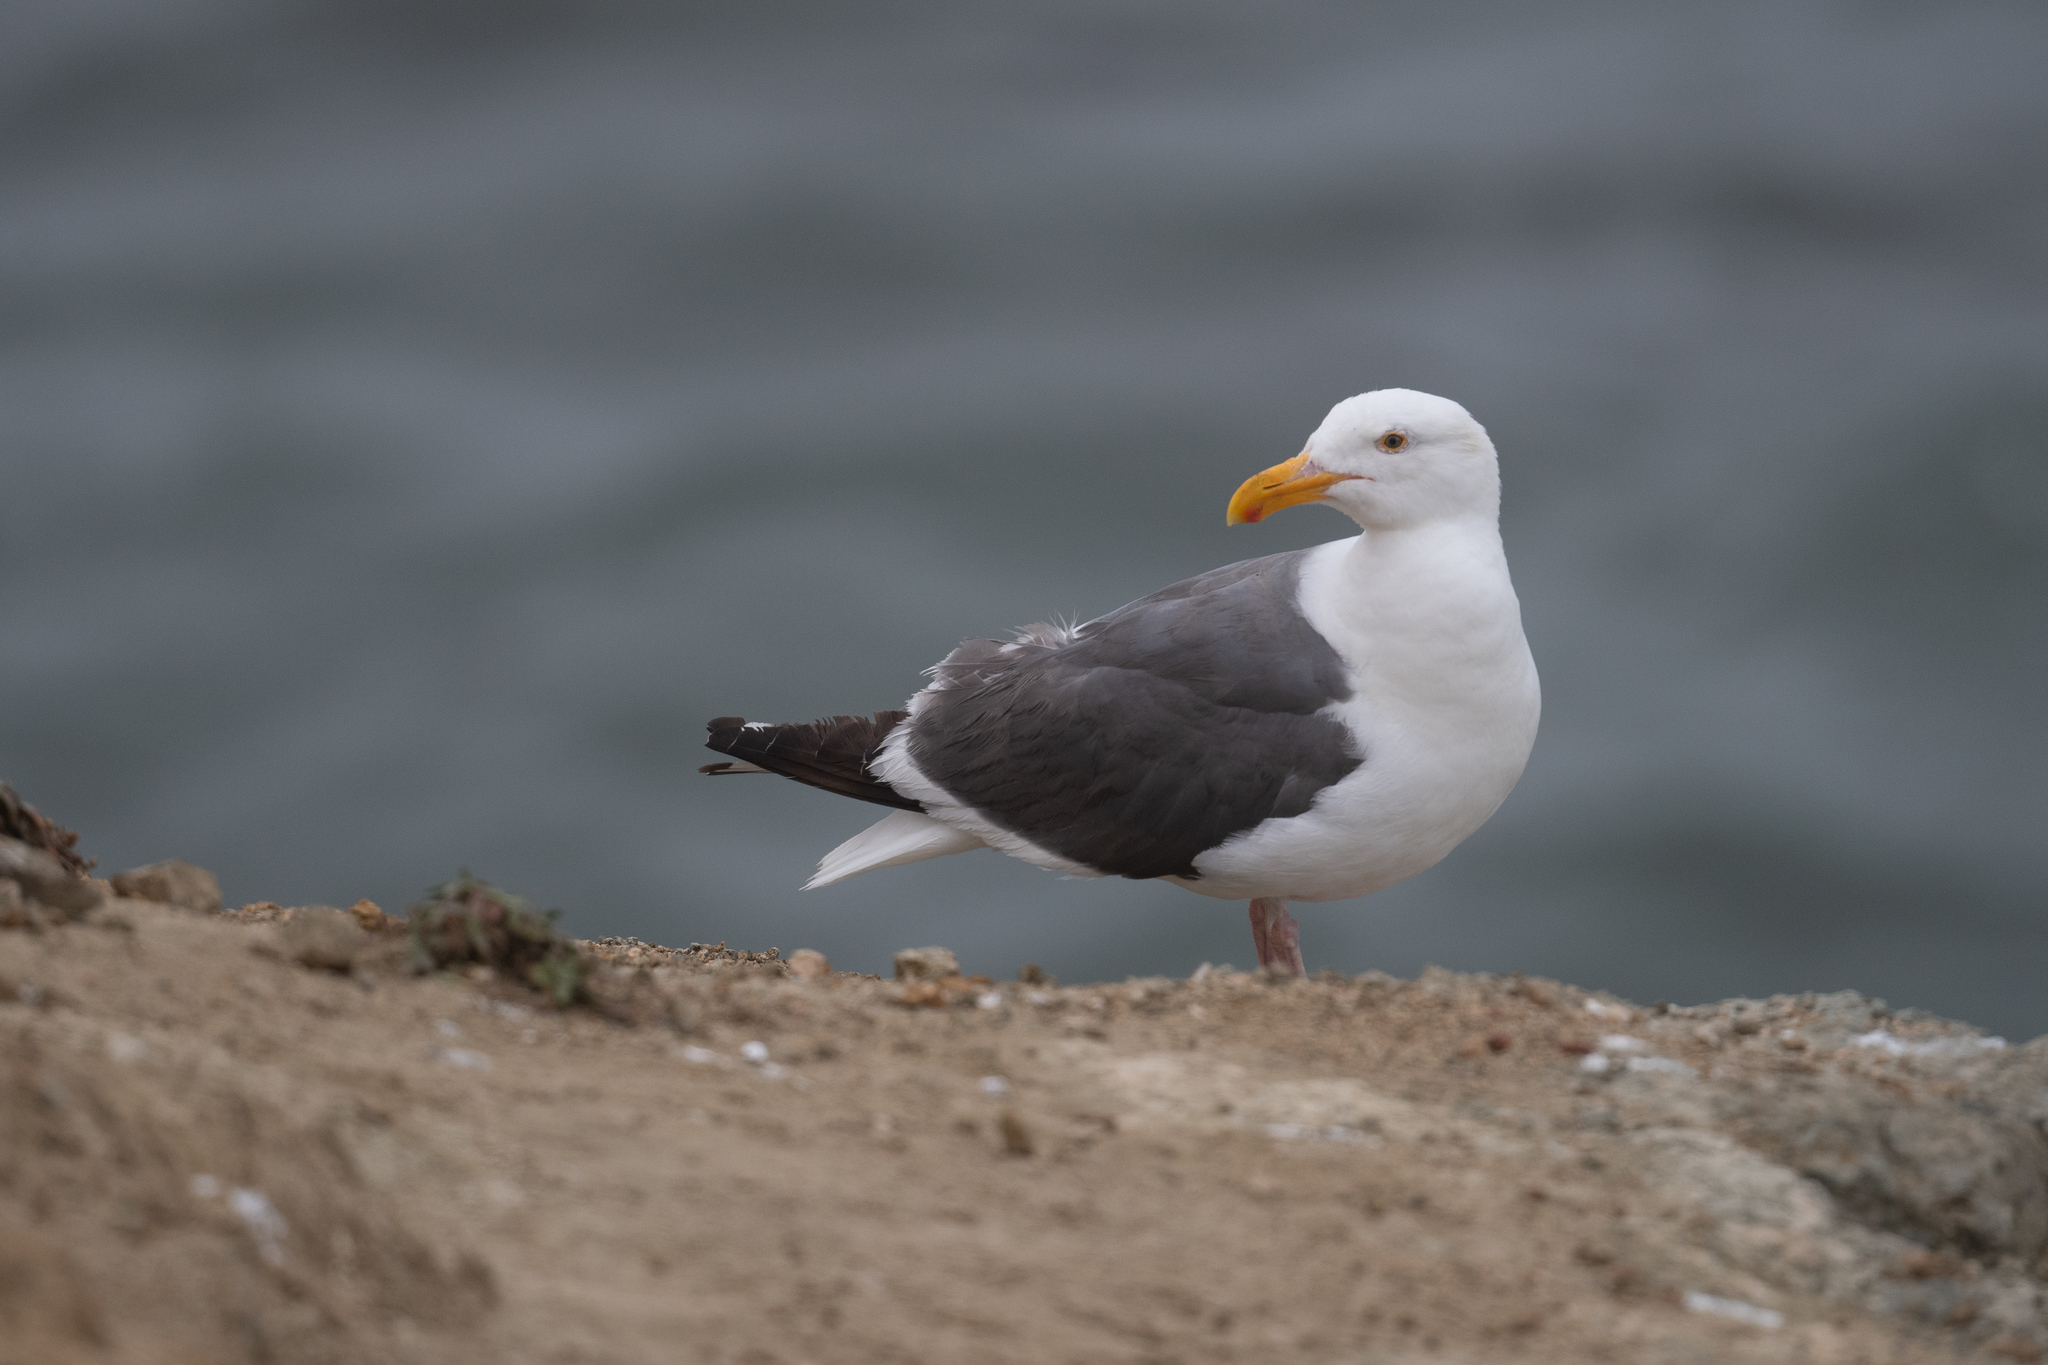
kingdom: Animalia
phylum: Chordata
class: Aves
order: Charadriiformes
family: Laridae
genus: Larus
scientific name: Larus occidentalis
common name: Western gull
